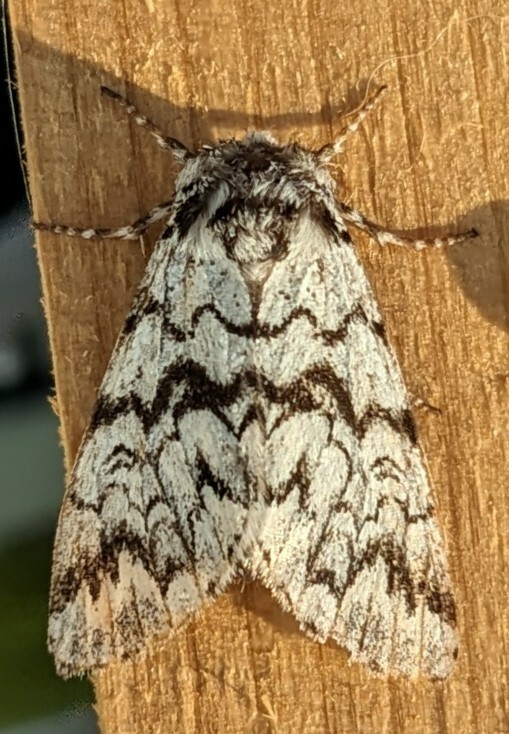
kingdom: Animalia
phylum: Arthropoda
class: Insecta
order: Lepidoptera
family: Noctuidae
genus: Panthea
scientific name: Panthea acronyctoides
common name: Black zigzag moth
